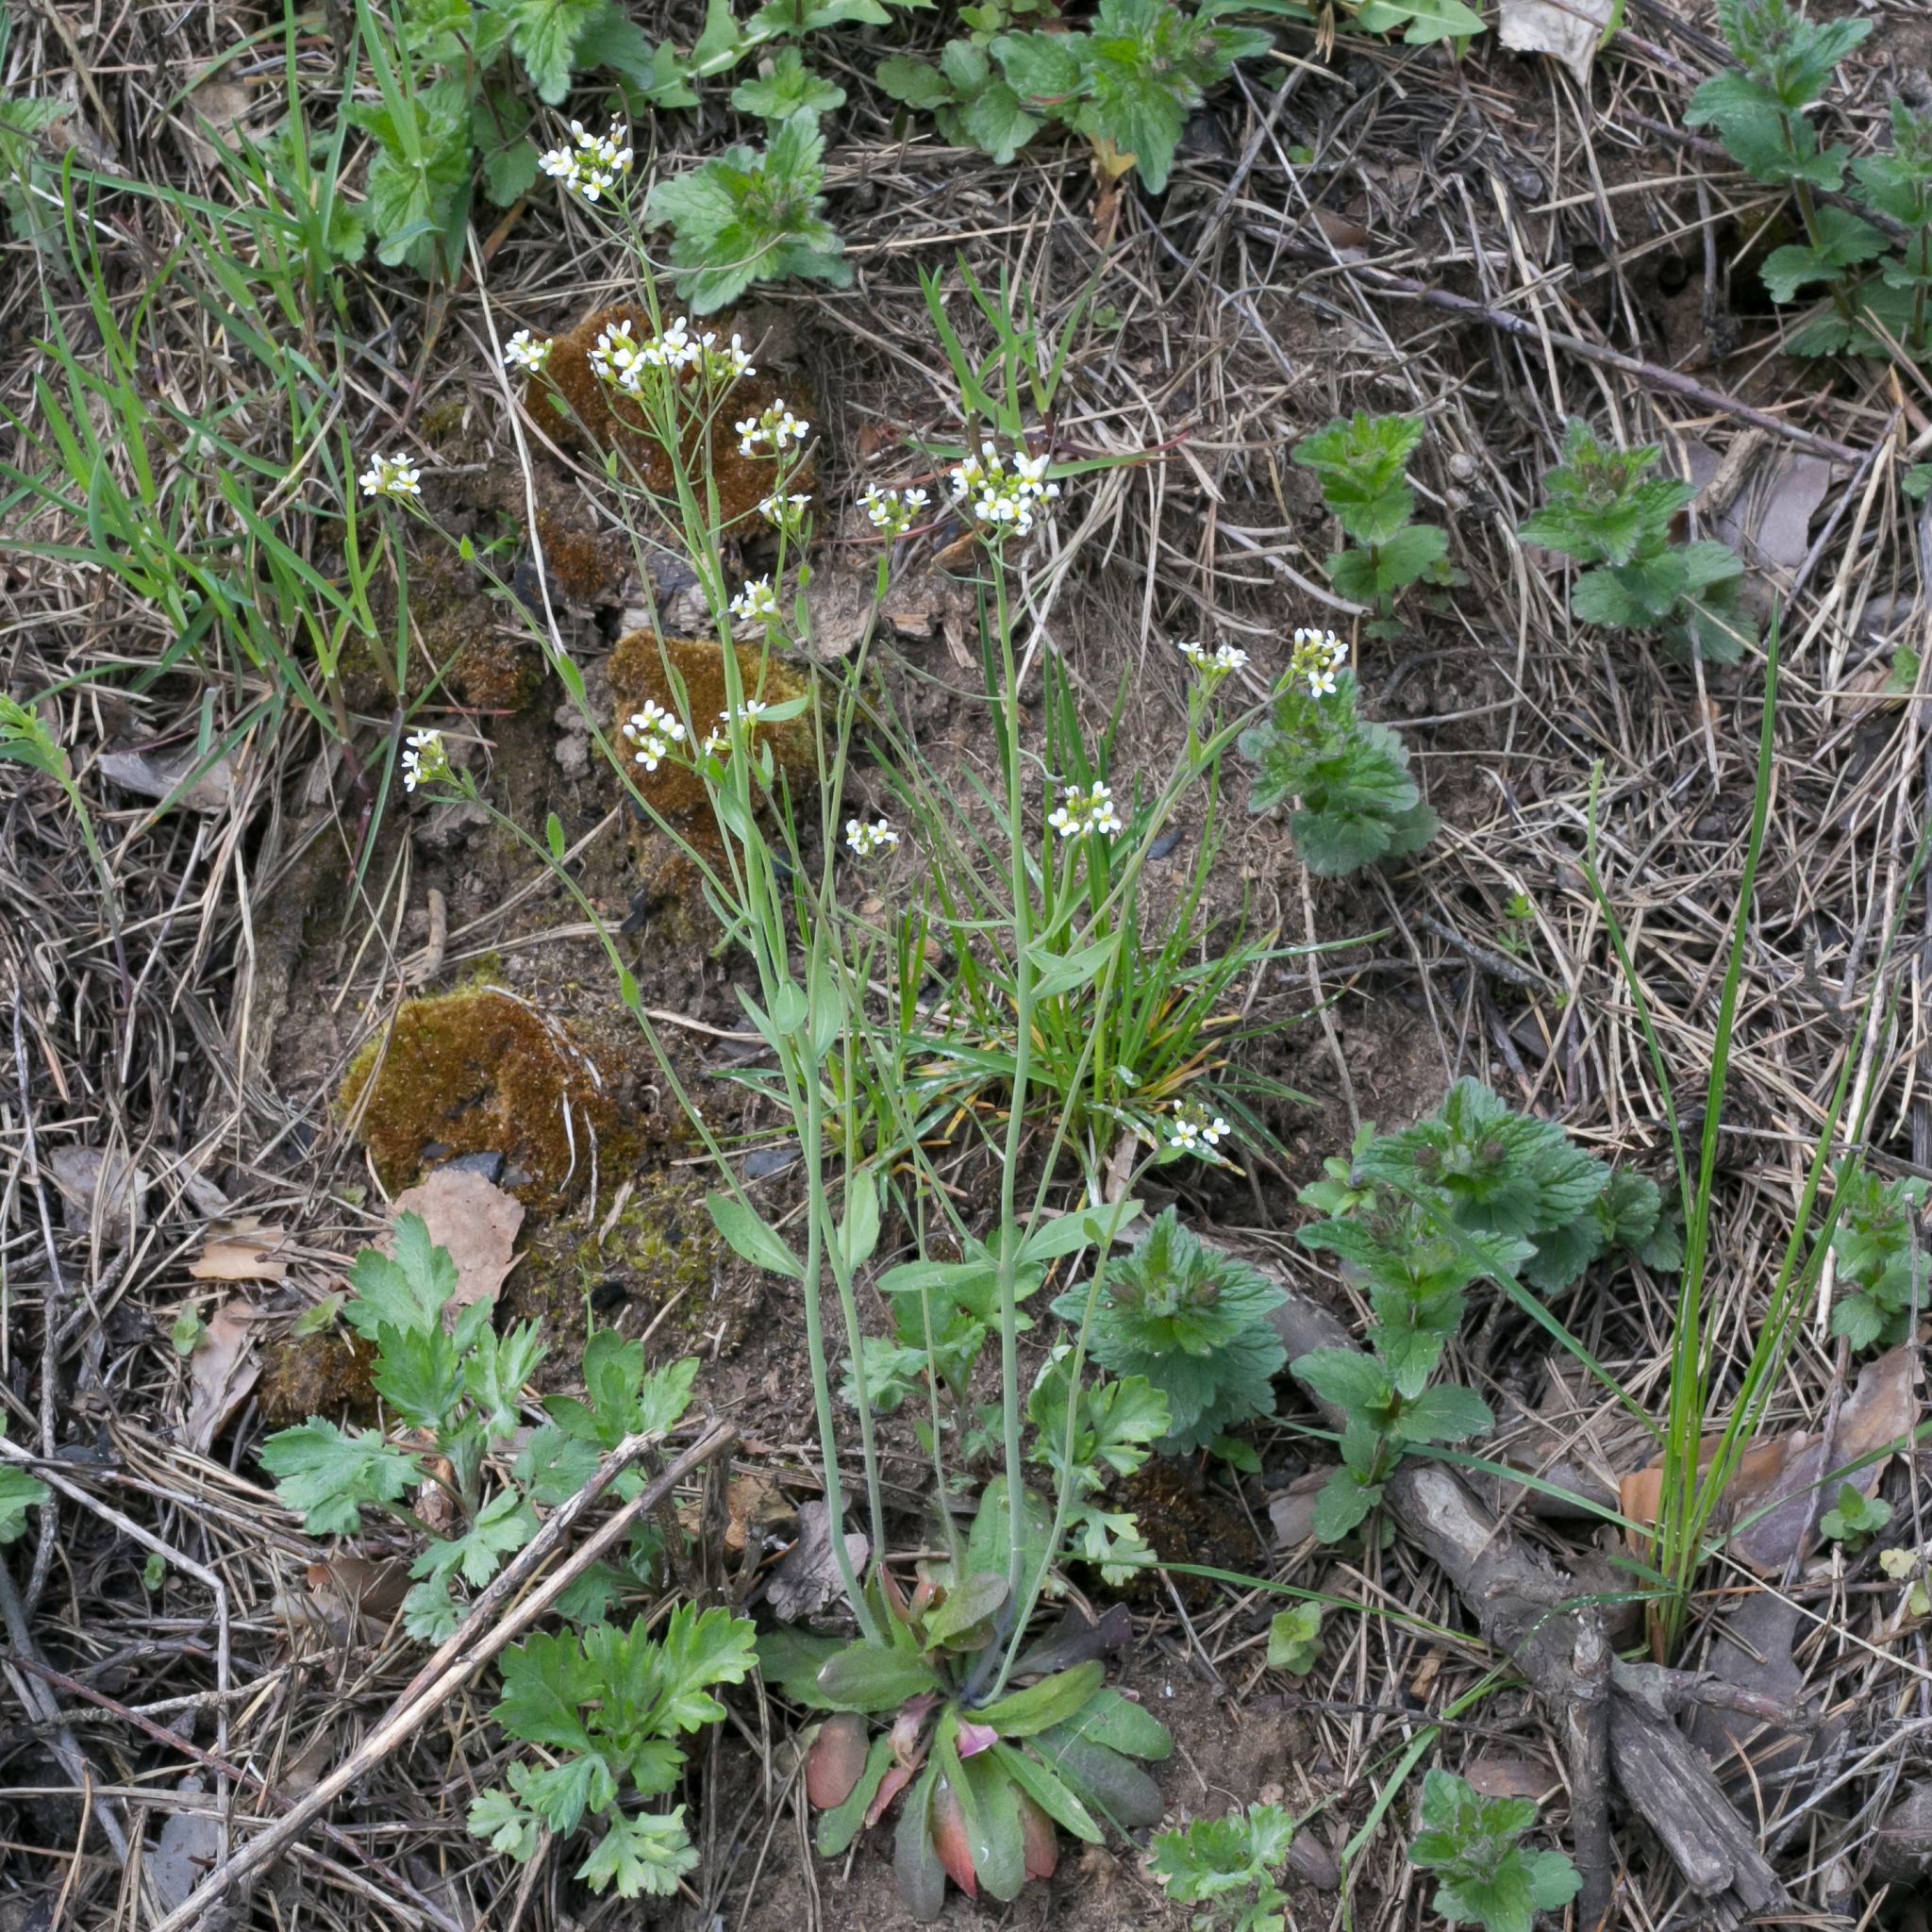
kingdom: Plantae
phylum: Tracheophyta
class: Magnoliopsida
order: Brassicales
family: Brassicaceae
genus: Arabidopsis
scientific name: Arabidopsis thaliana
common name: Thale cress
